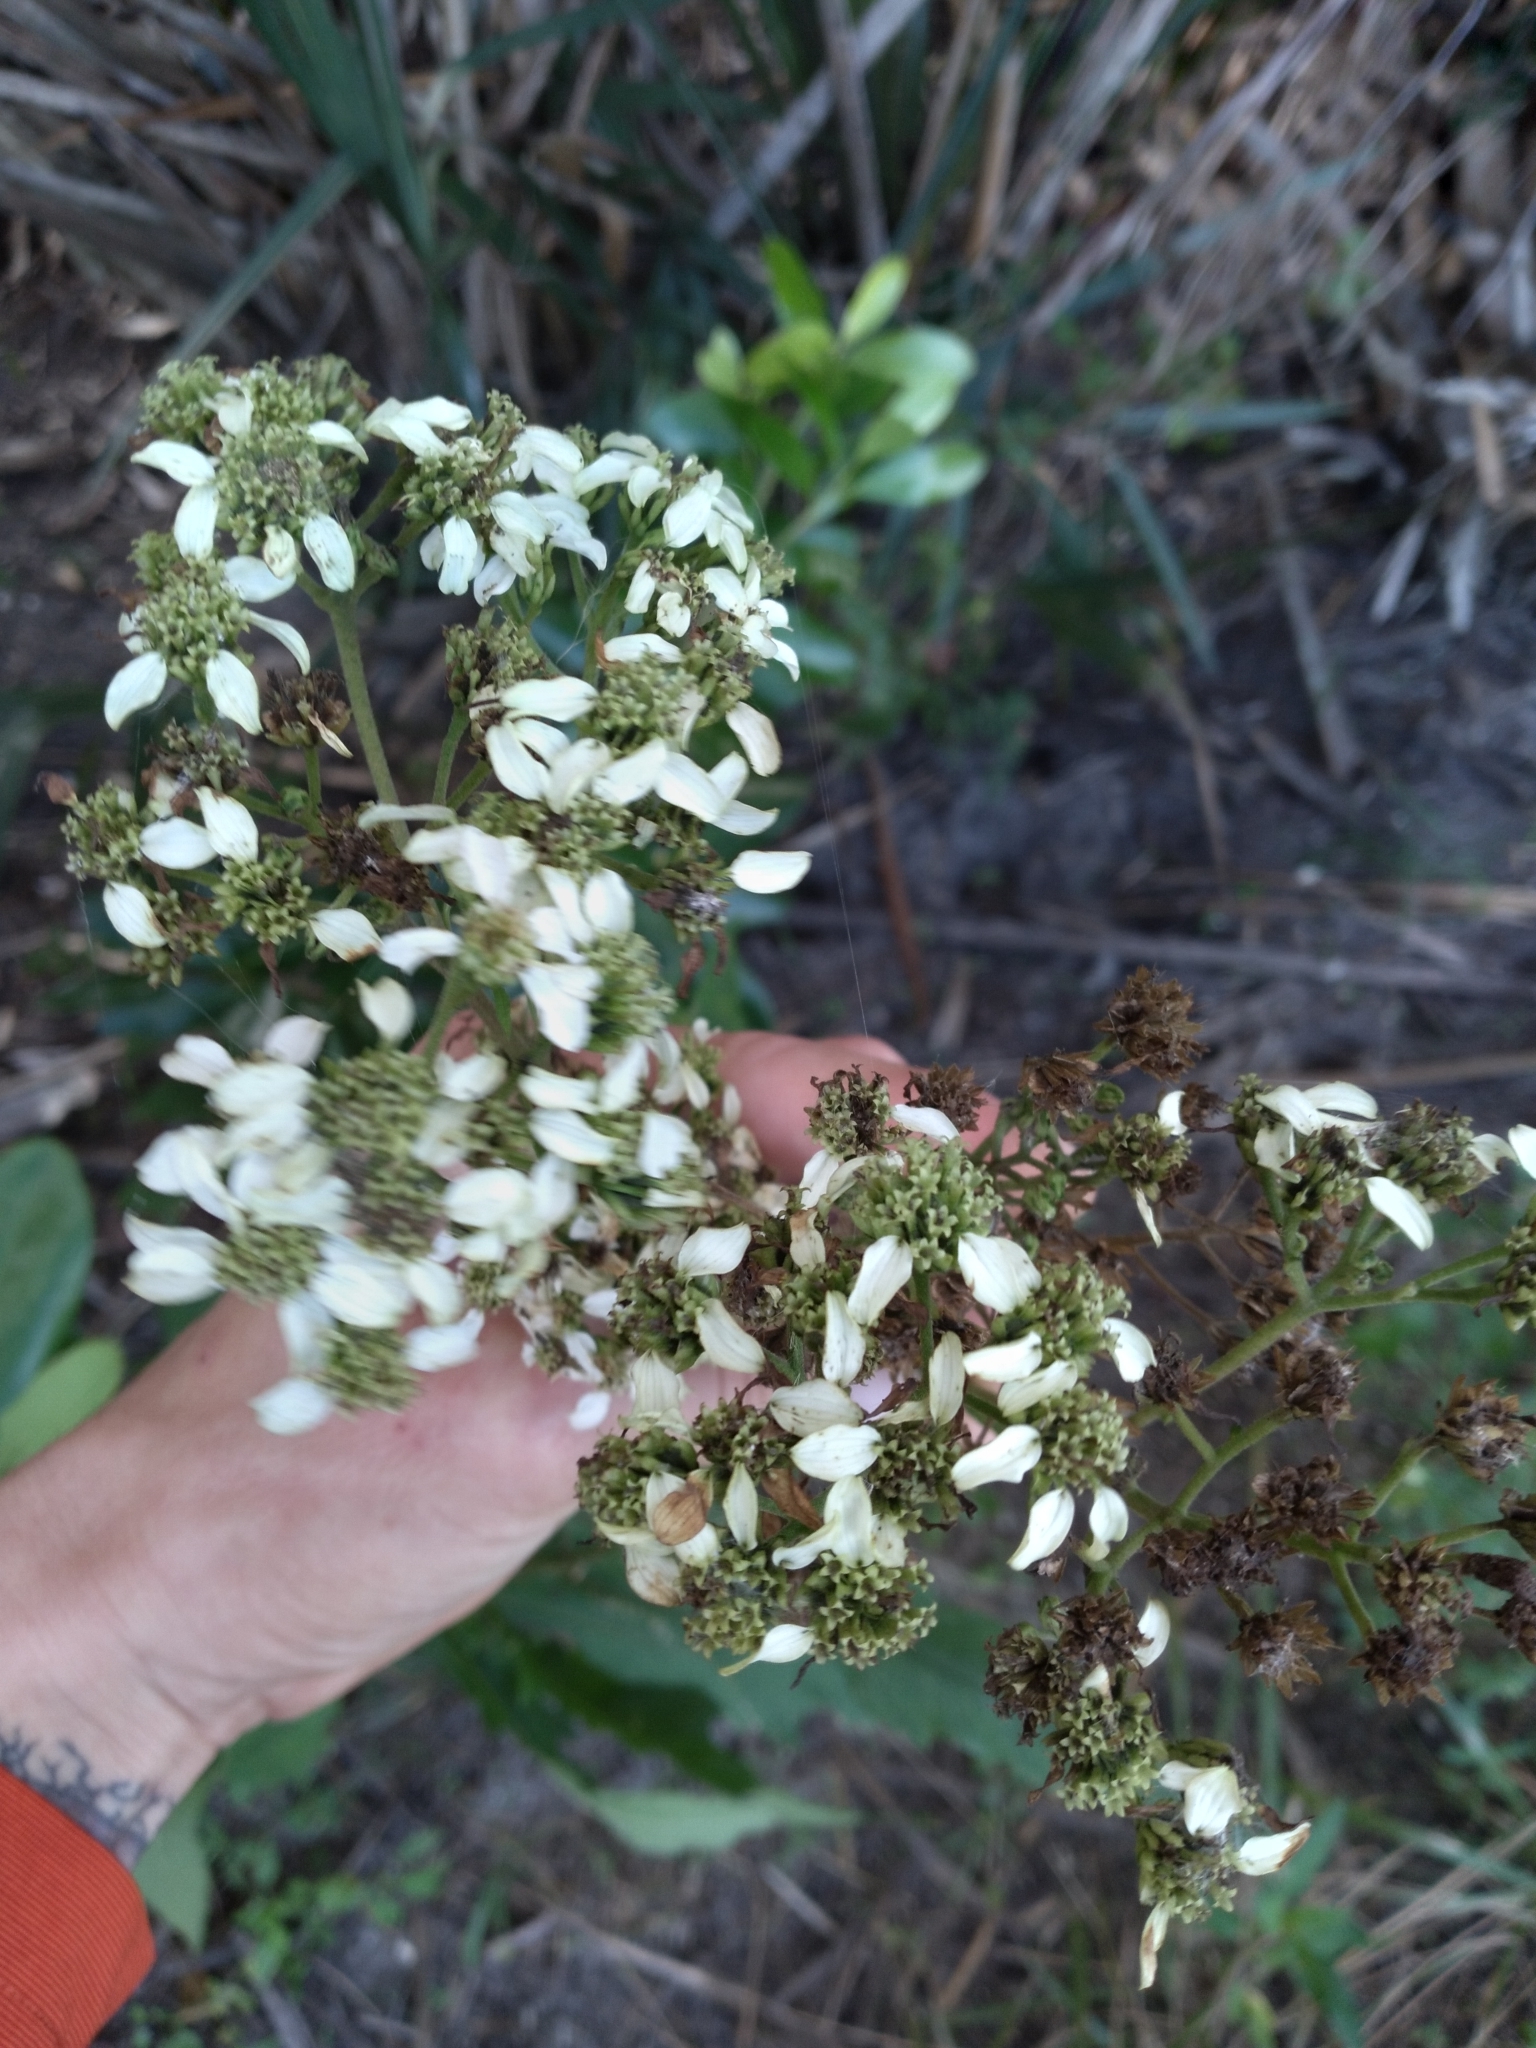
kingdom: Plantae
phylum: Tracheophyta
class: Magnoliopsida
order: Asterales
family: Asteraceae
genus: Verbesina
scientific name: Verbesina virginica
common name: Frostweed
